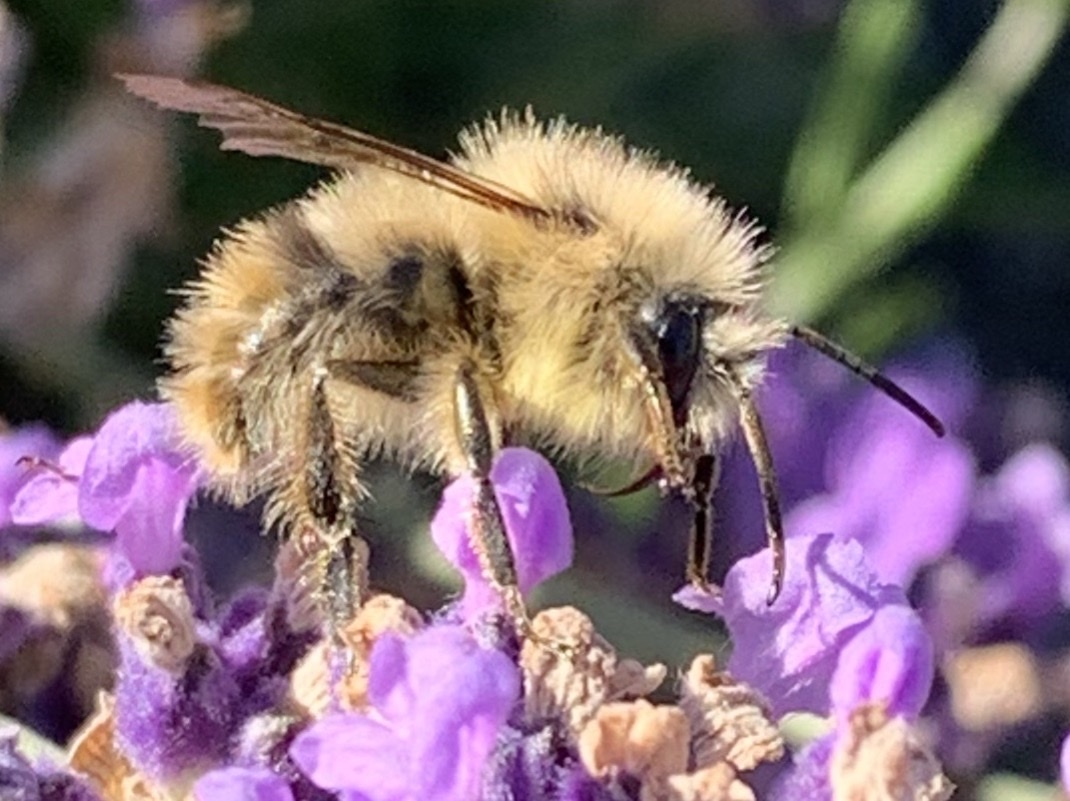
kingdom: Animalia
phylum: Arthropoda
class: Insecta
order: Hymenoptera
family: Apidae
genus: Bombus
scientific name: Bombus mixtus
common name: Fuzzy-horned bumble bee
